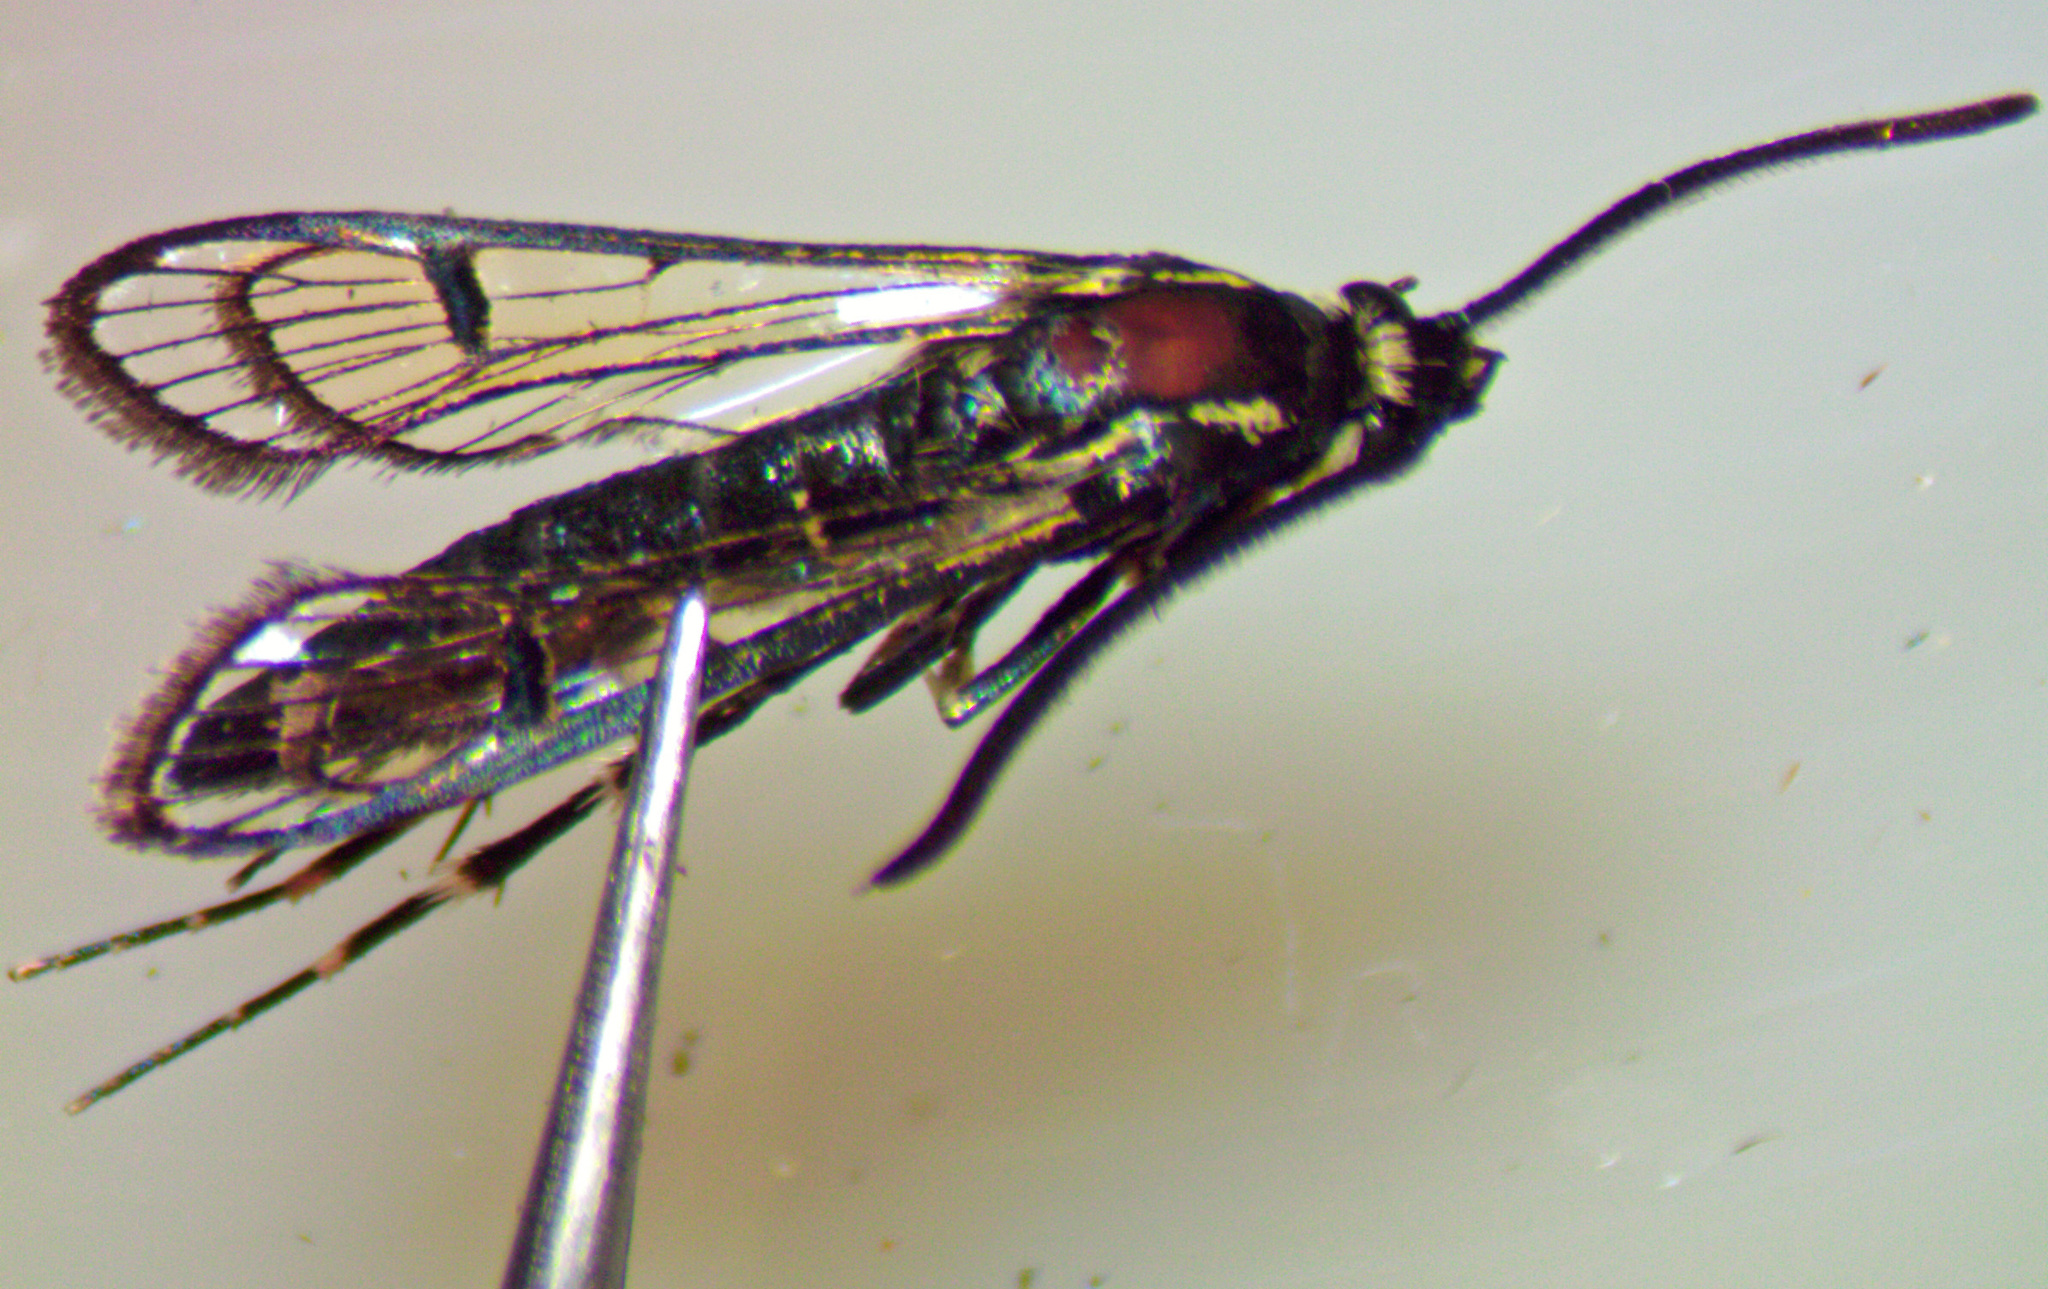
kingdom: Animalia
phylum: Arthropoda
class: Insecta
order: Lepidoptera
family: Sesiidae
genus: Synanthedon
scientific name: Synanthedon exitiosa
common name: Peachtree borer moth
